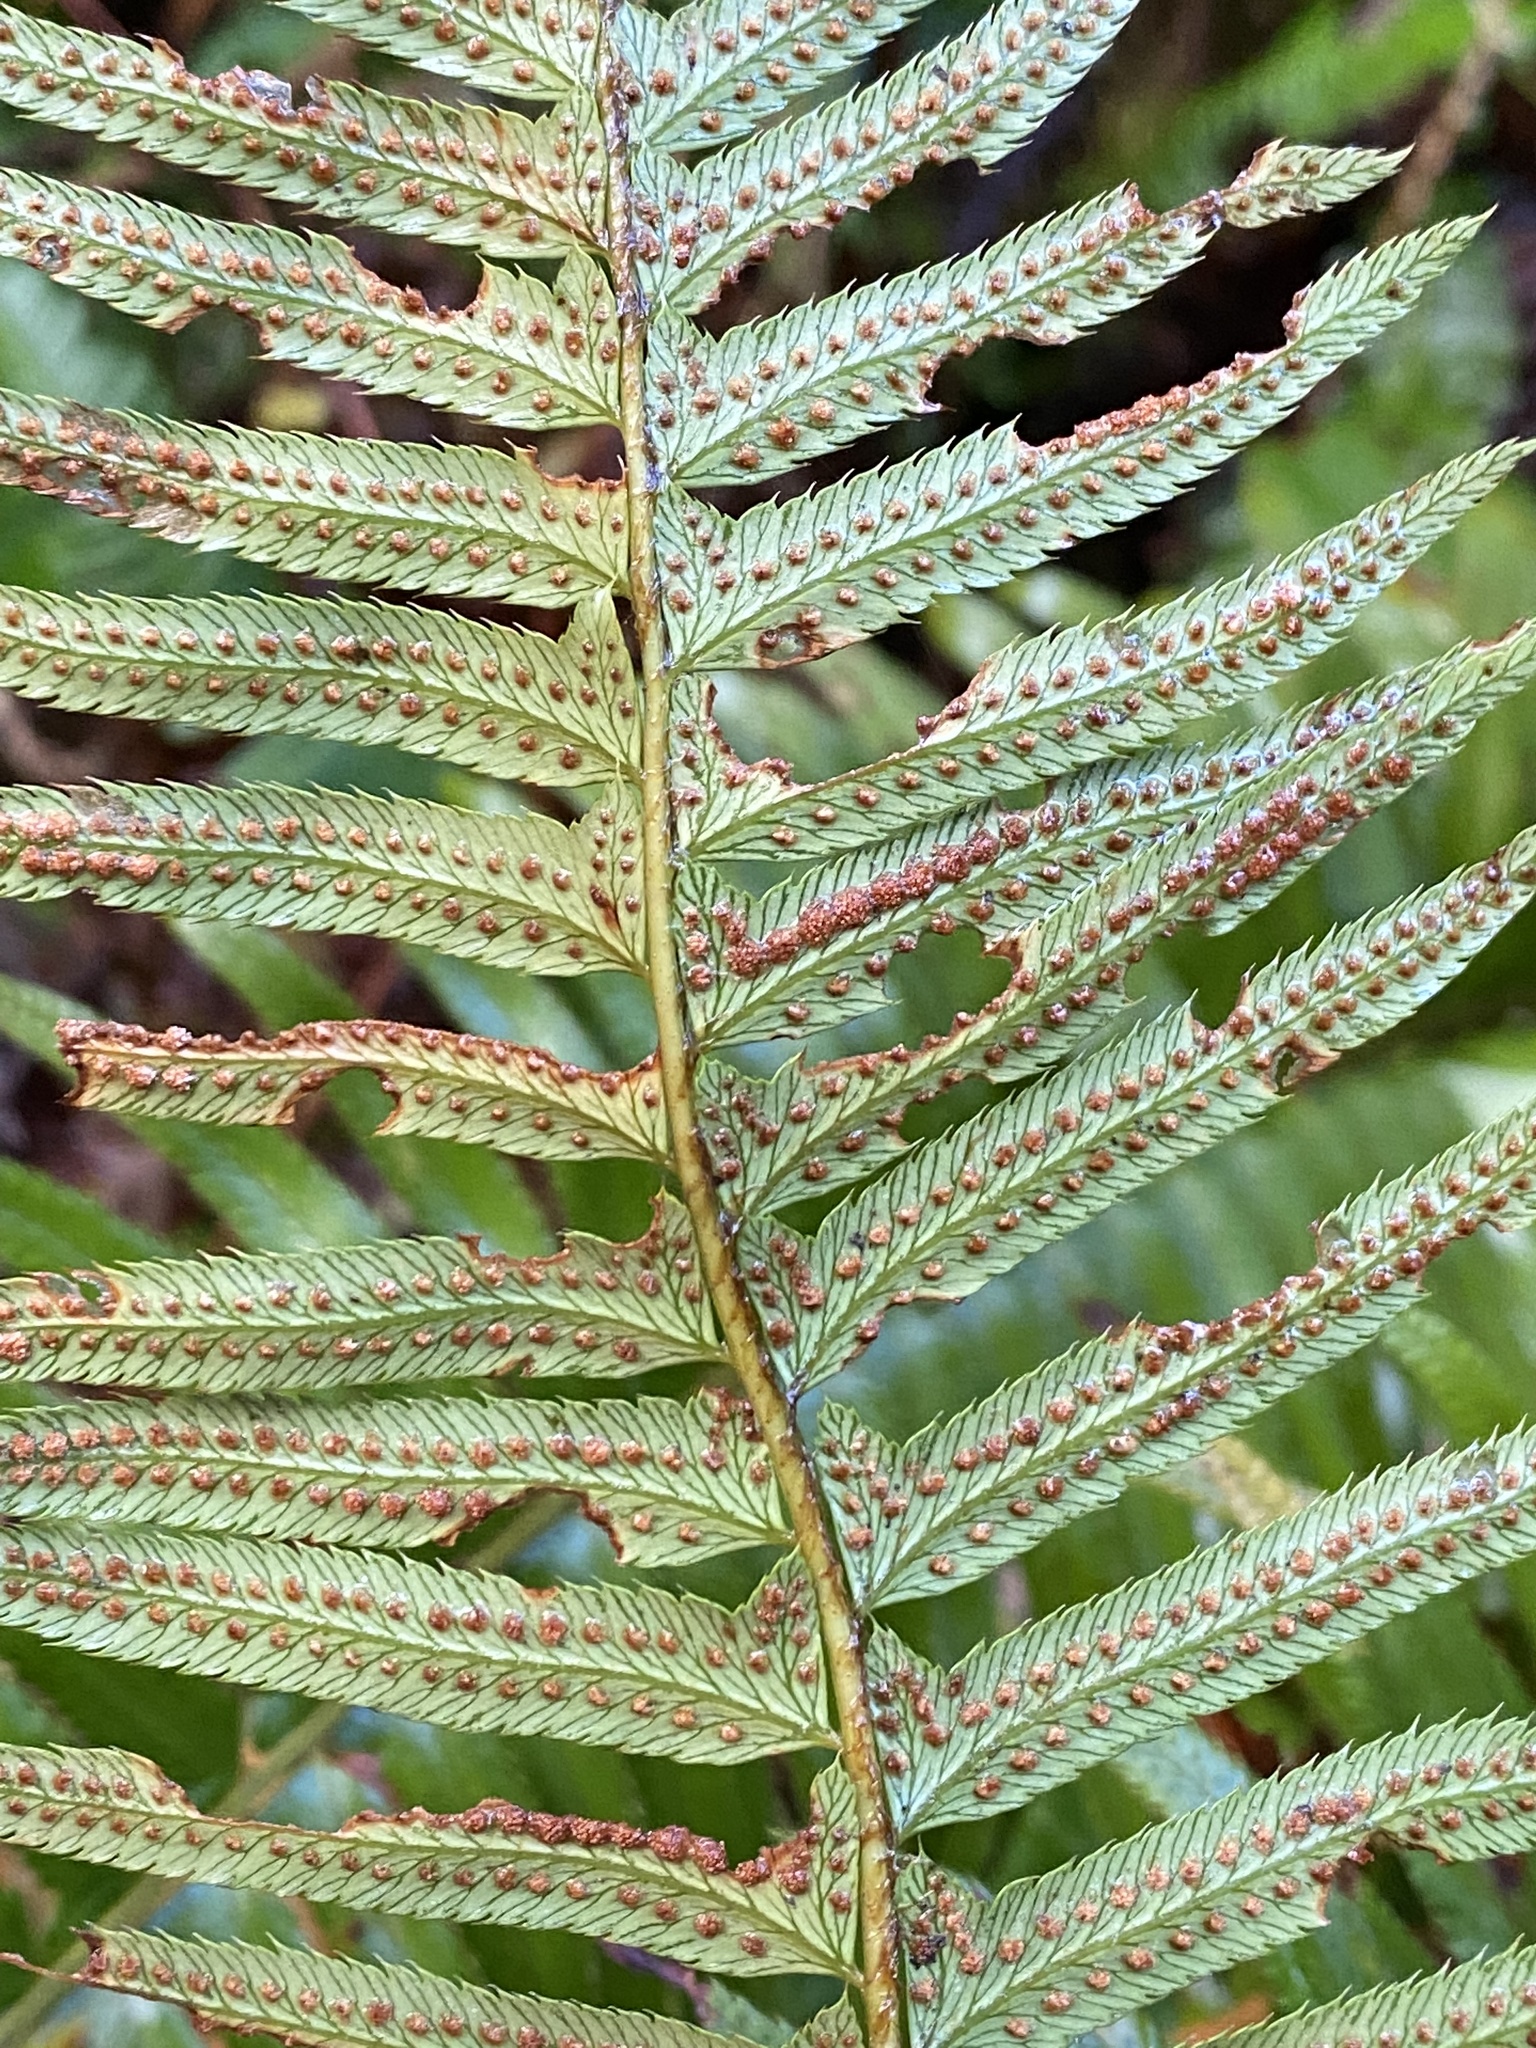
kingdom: Plantae
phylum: Tracheophyta
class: Polypodiopsida
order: Polypodiales
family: Dryopteridaceae
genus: Polystichum
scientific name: Polystichum munitum
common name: Western sword-fern
